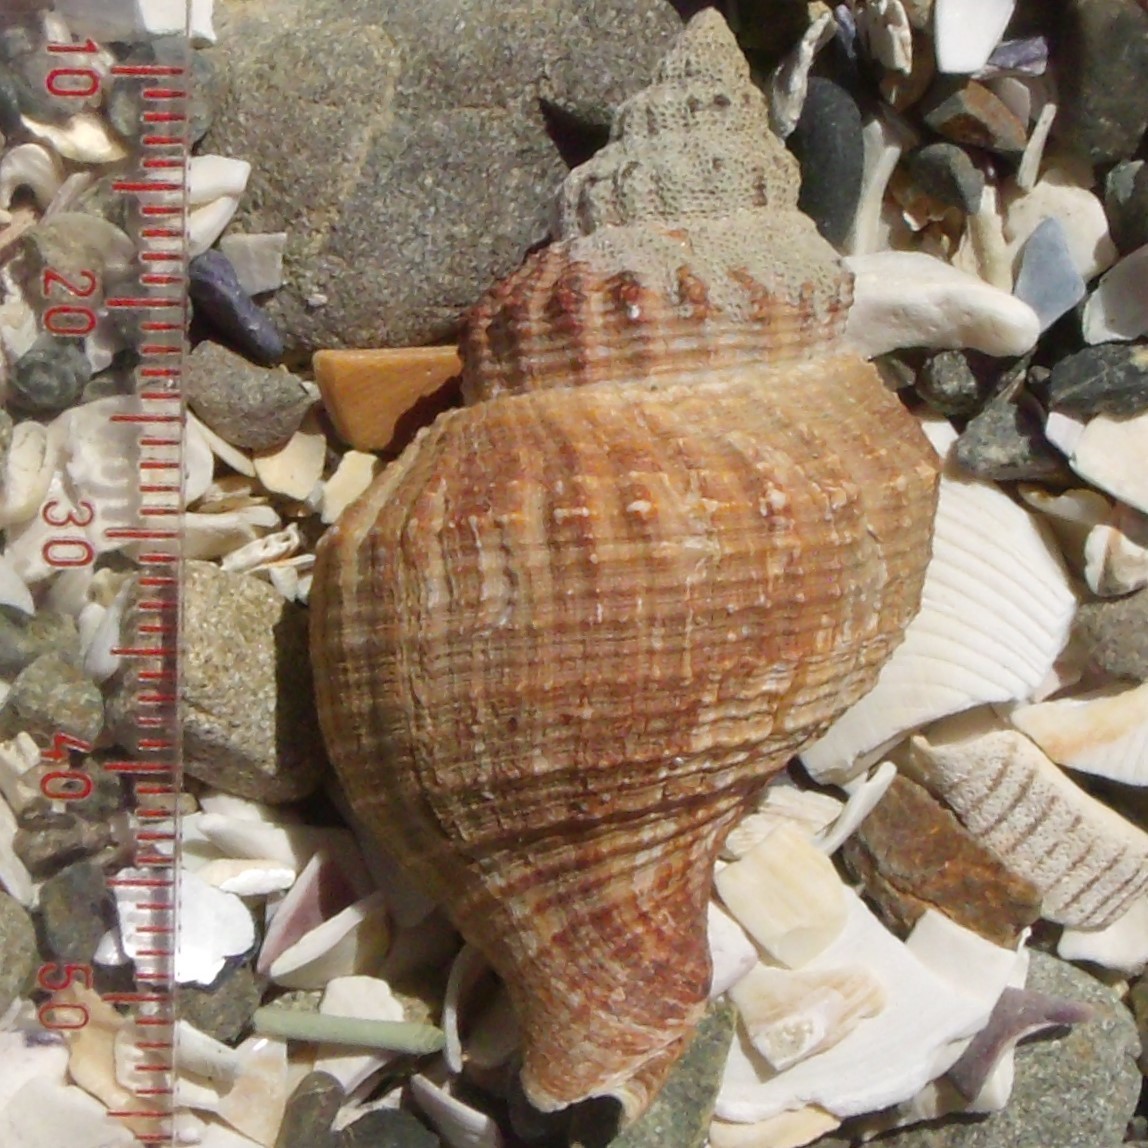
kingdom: Animalia
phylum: Mollusca
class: Gastropoda
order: Neogastropoda
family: Prosiphonidae
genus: Austrofusus
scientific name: Austrofusus glans
